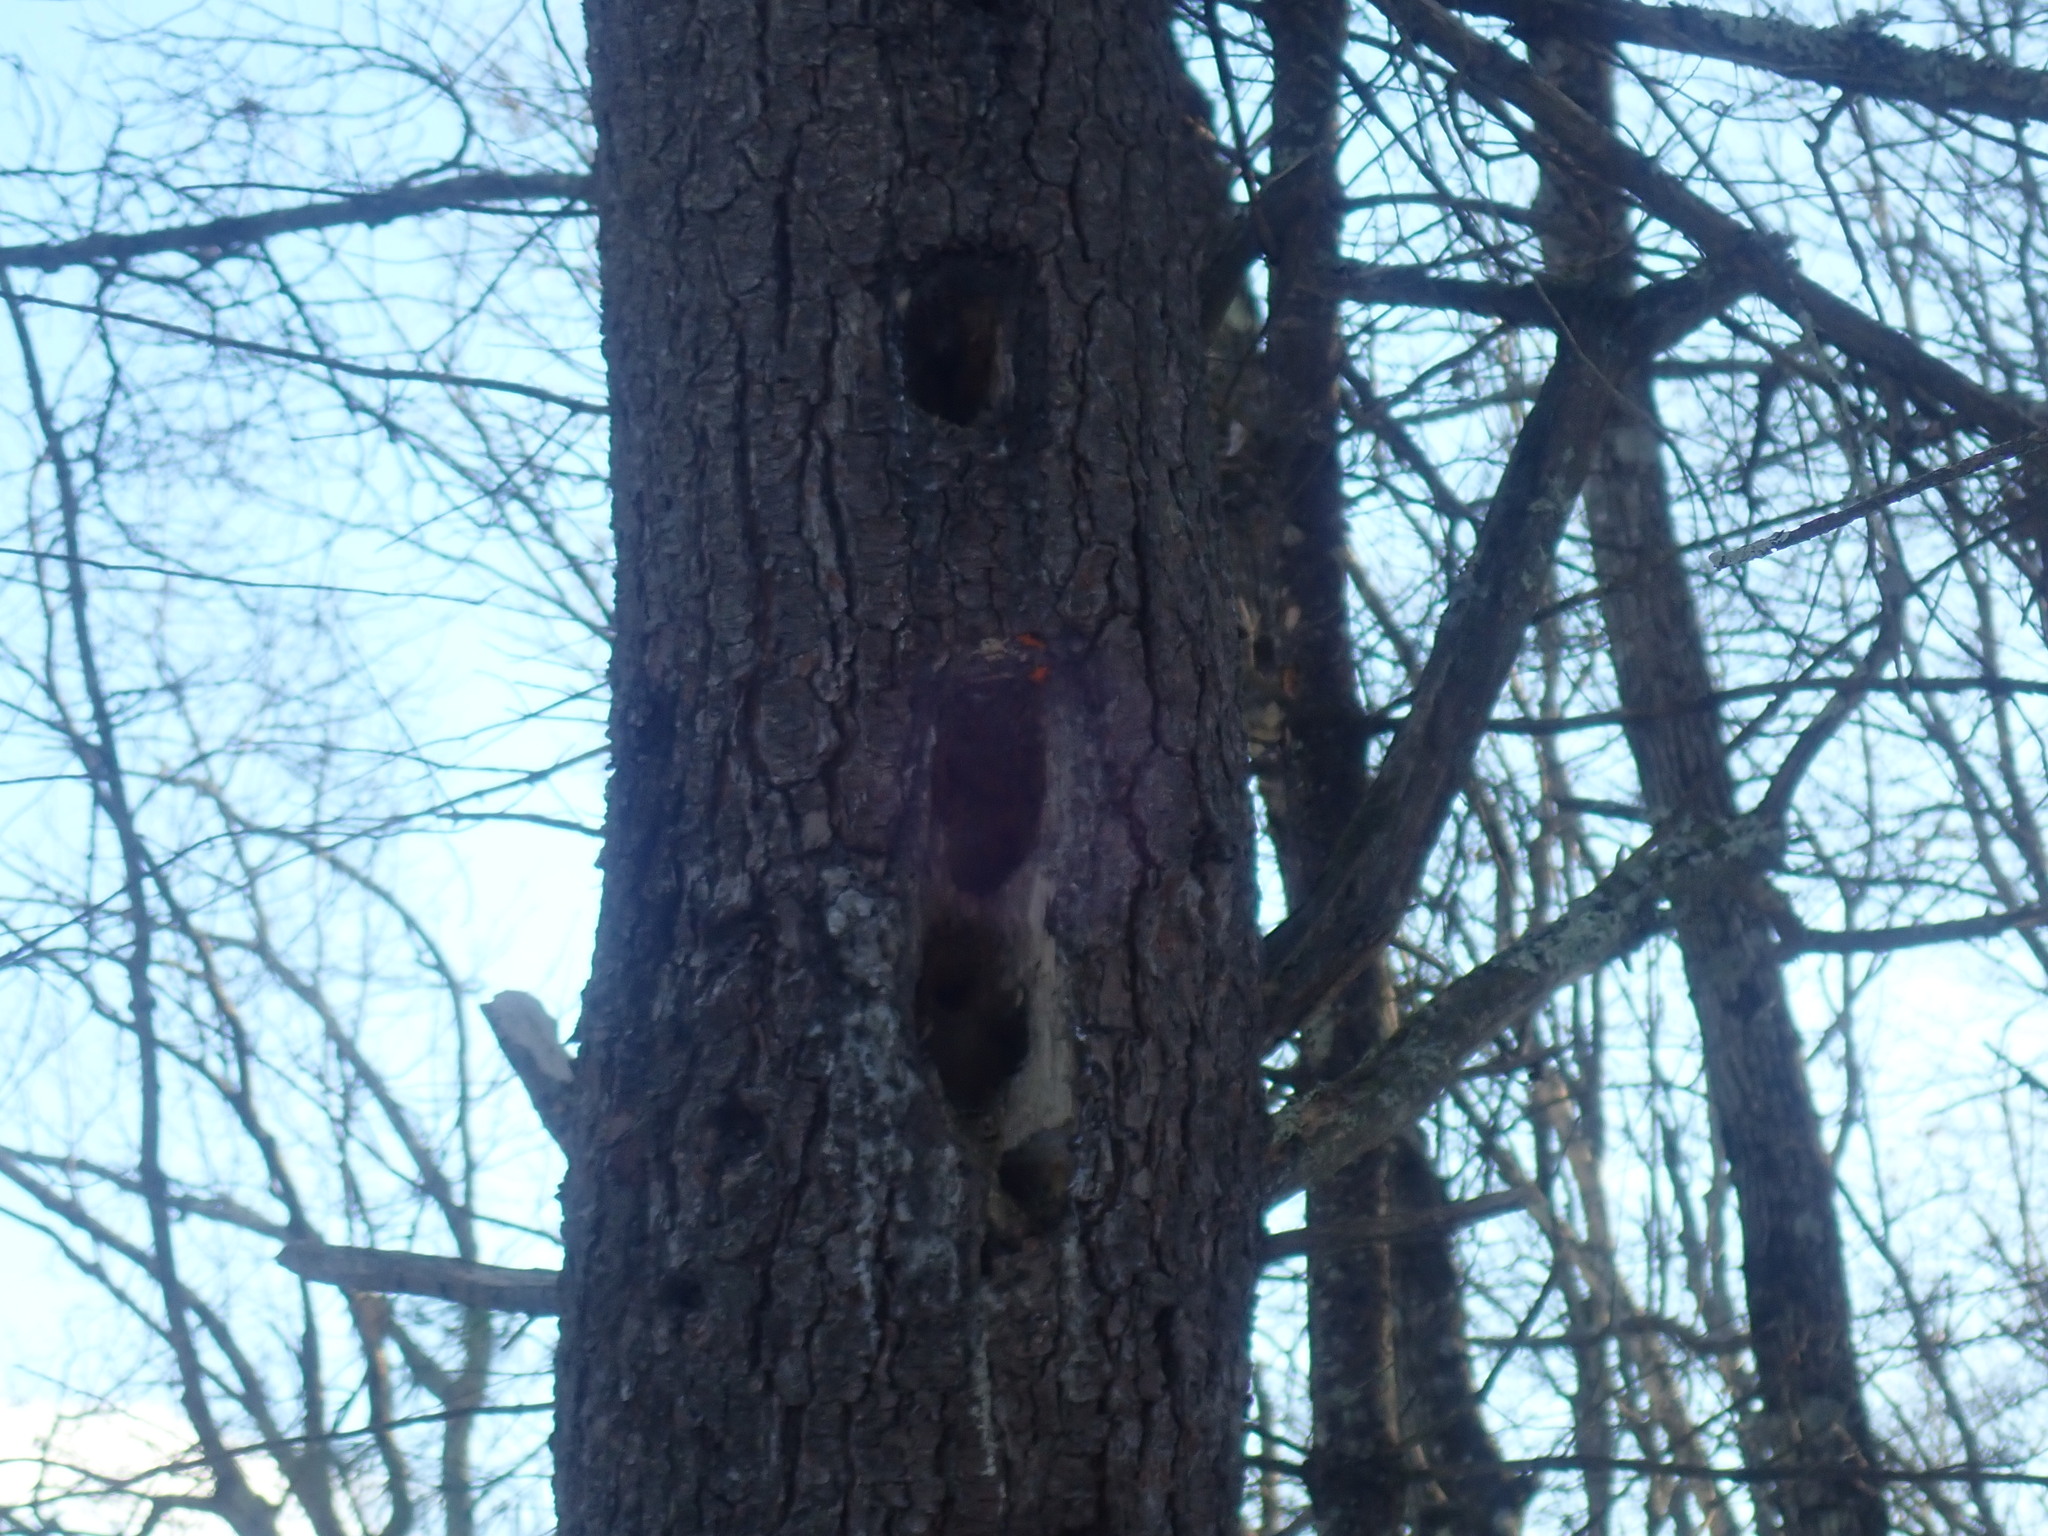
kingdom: Animalia
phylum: Chordata
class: Aves
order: Piciformes
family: Picidae
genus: Dryocopus
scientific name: Dryocopus pileatus
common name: Pileated woodpecker
